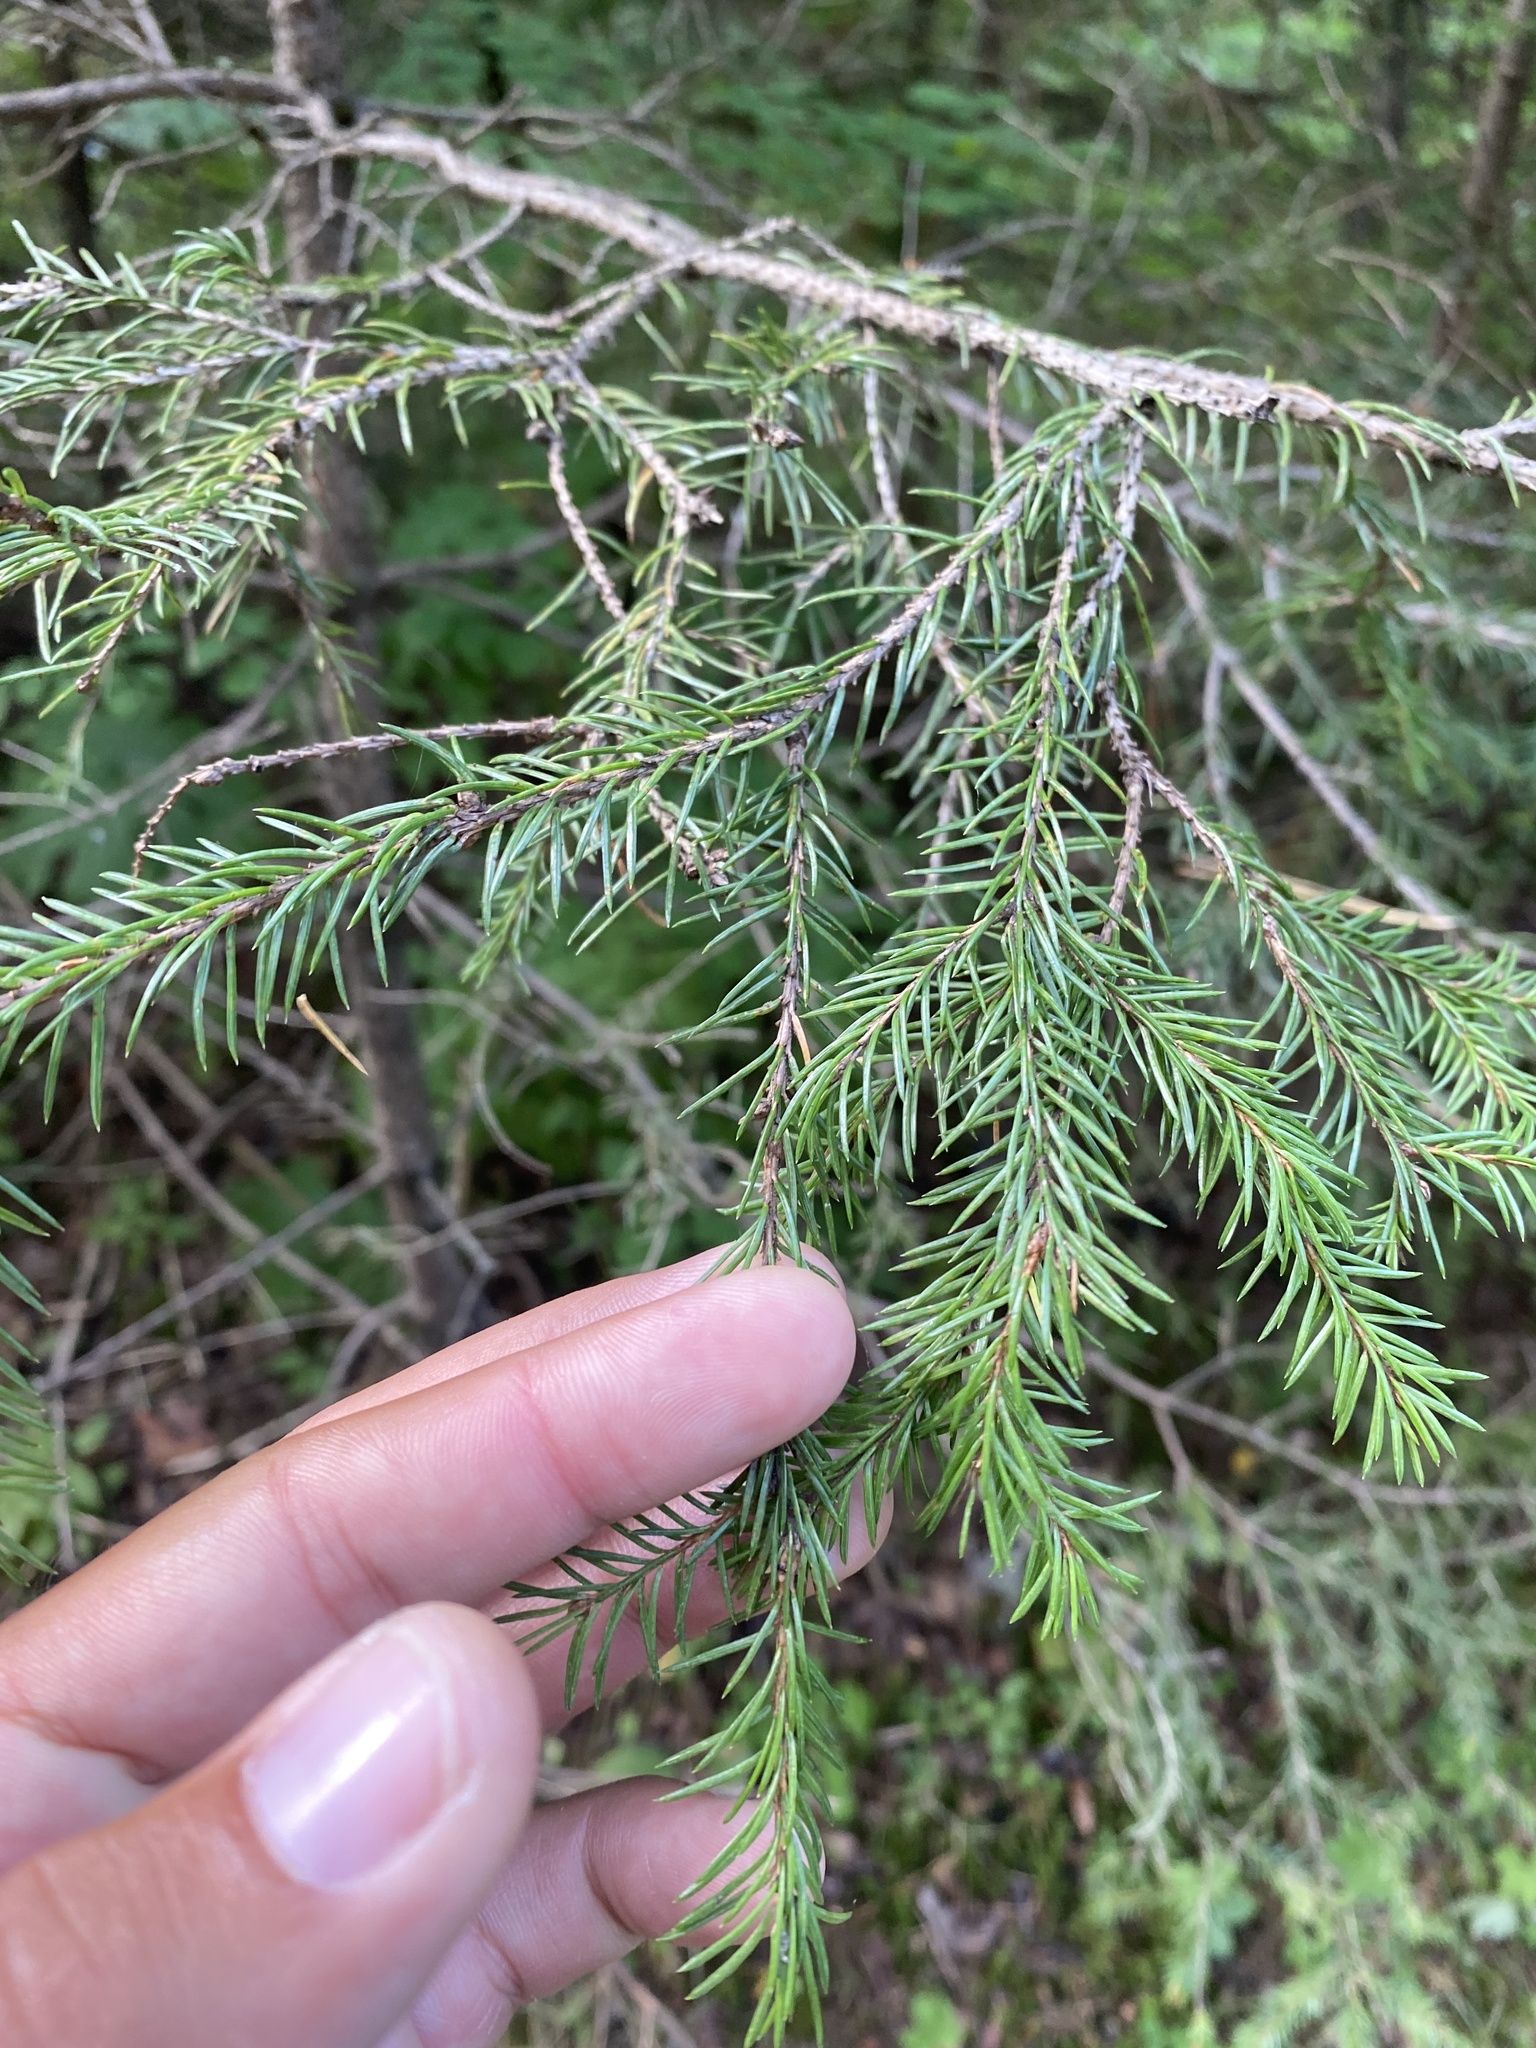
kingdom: Plantae
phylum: Tracheophyta
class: Pinopsida
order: Pinales
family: Pinaceae
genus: Picea
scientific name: Picea obovata
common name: Siberian spruce
